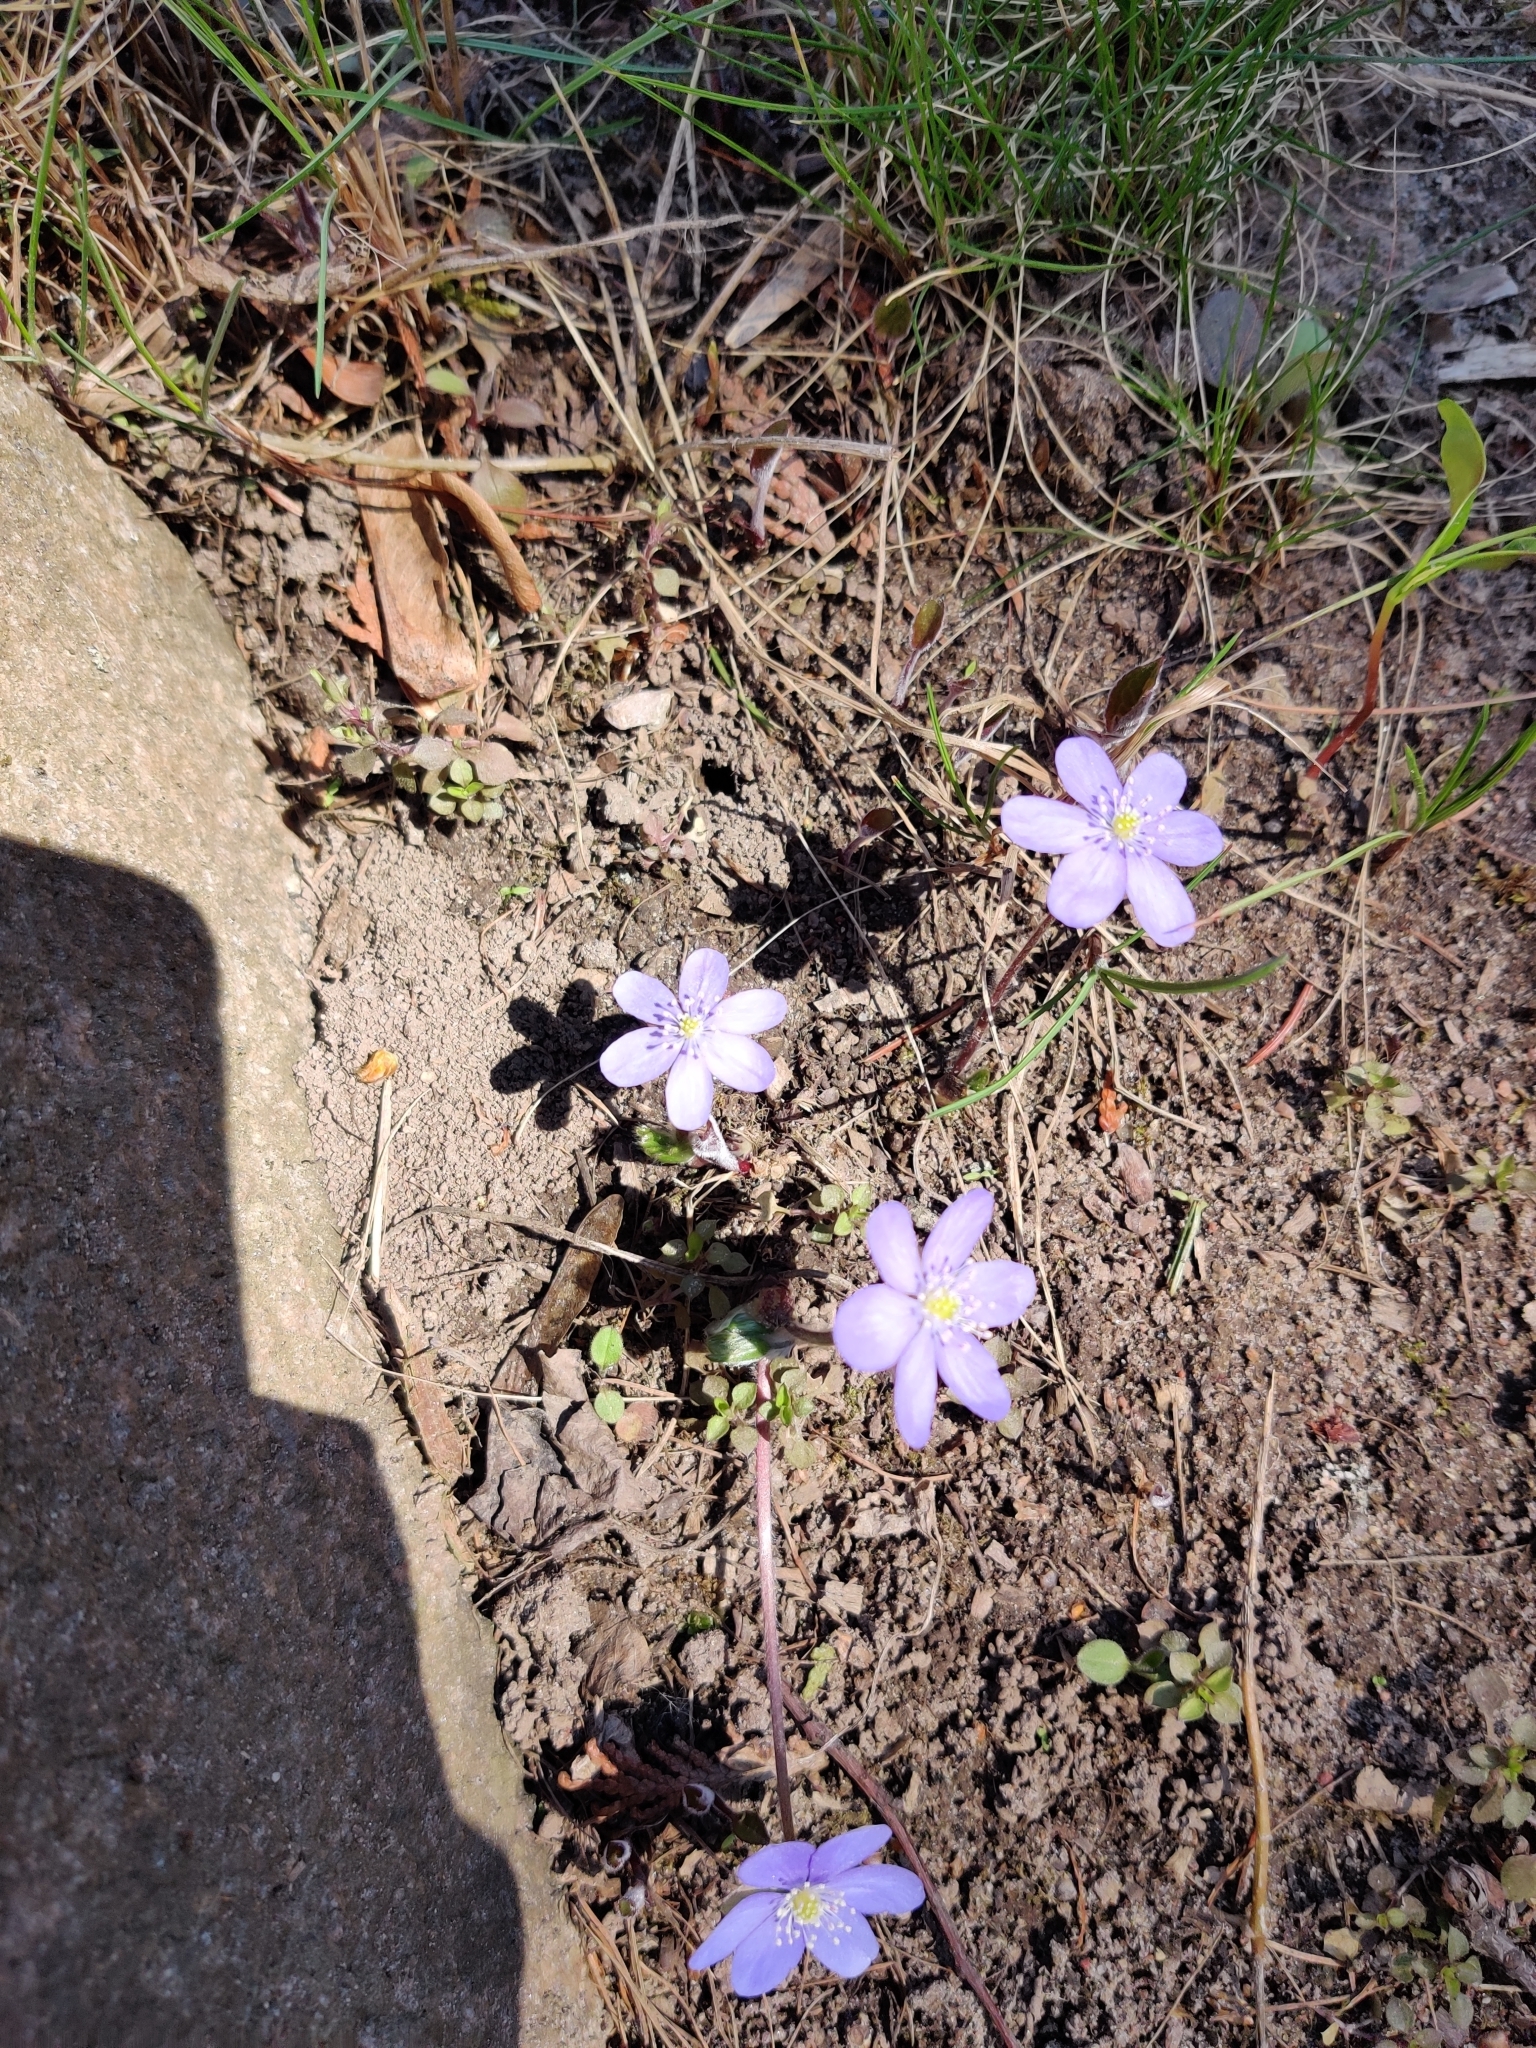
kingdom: Plantae
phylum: Tracheophyta
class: Magnoliopsida
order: Ranunculales
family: Ranunculaceae
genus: Hepatica
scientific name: Hepatica nobilis
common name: Liverleaf
